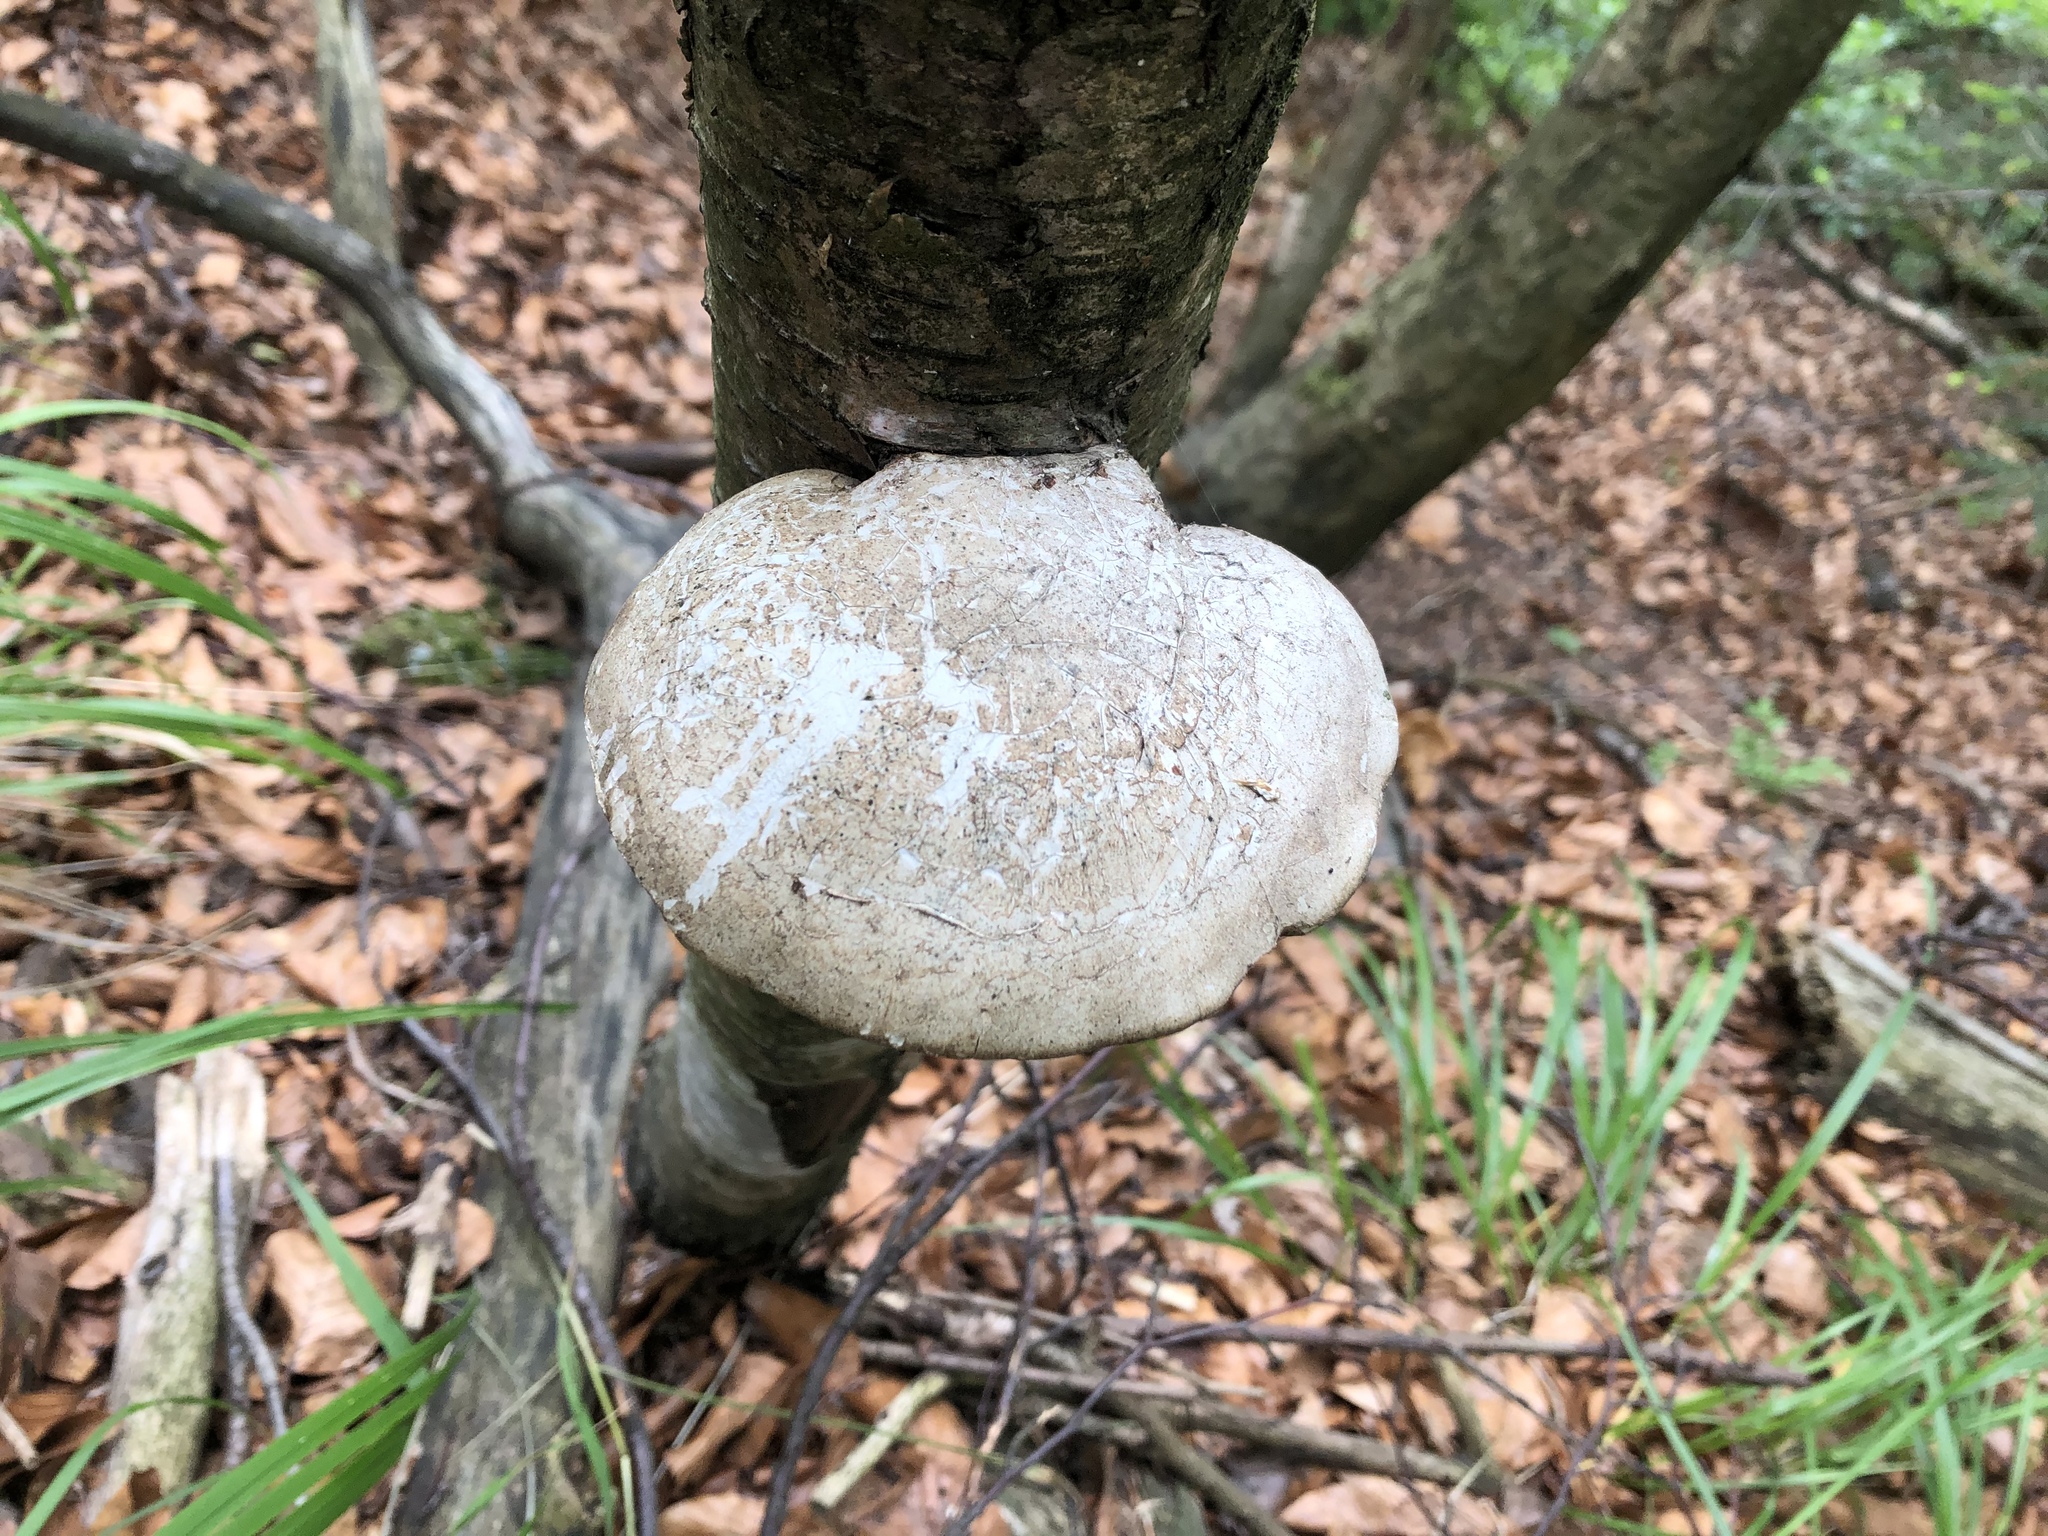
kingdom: Fungi
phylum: Basidiomycota
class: Agaricomycetes
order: Polyporales
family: Fomitopsidaceae
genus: Fomitopsis
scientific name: Fomitopsis betulina
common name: Birch polypore
